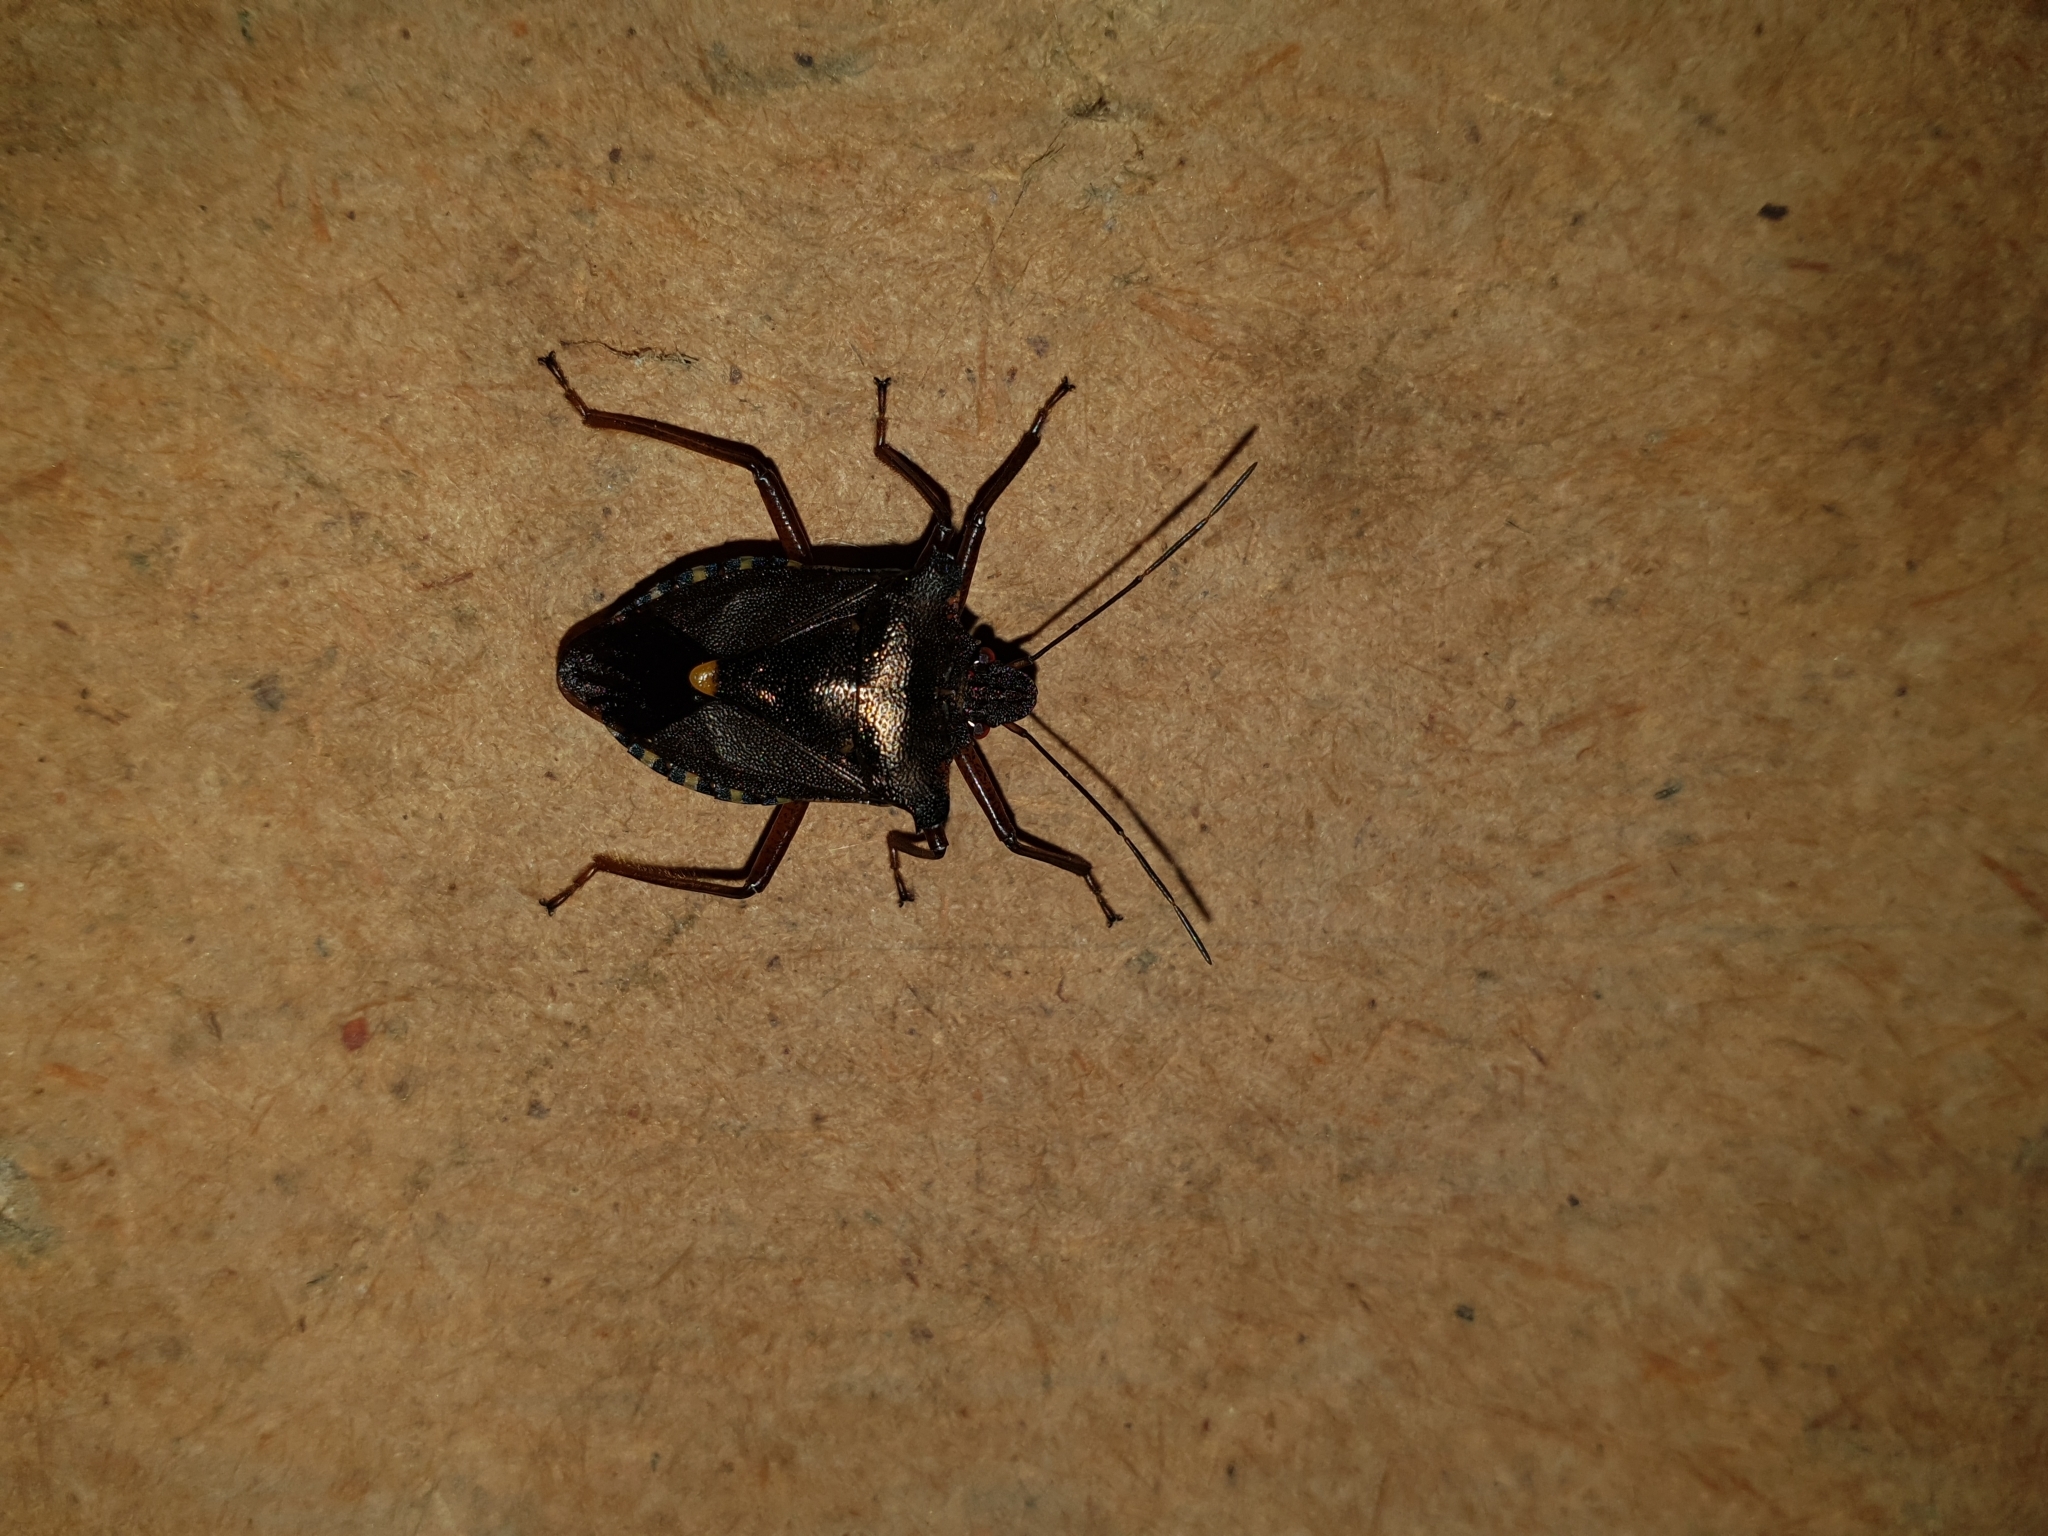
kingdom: Animalia
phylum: Arthropoda
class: Insecta
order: Hemiptera
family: Pentatomidae
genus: Pentatoma
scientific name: Pentatoma rufipes
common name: Forest bug
